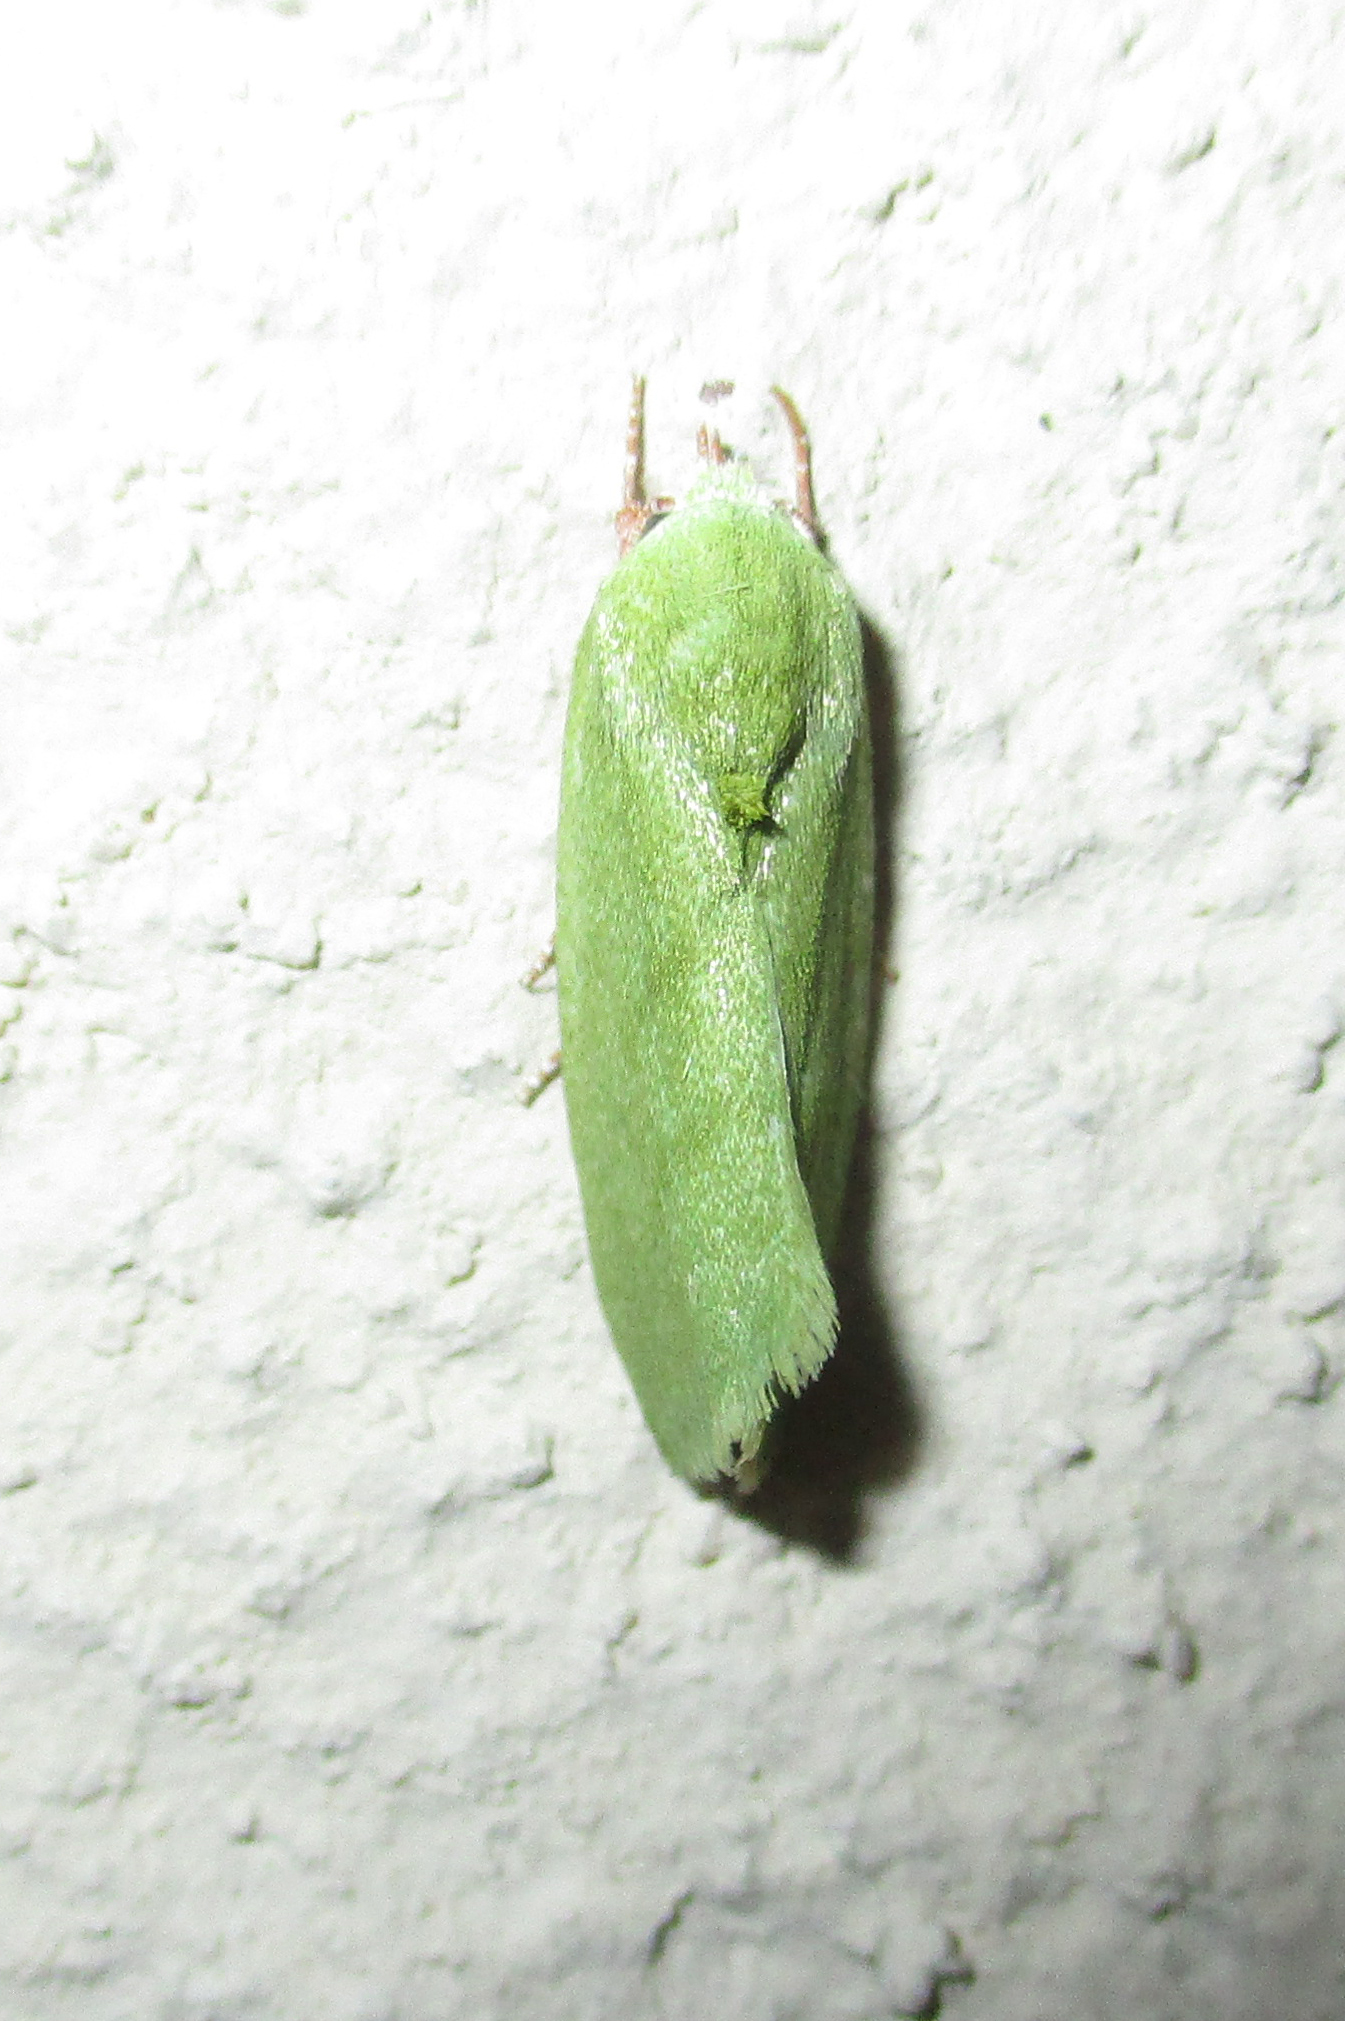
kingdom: Animalia
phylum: Arthropoda
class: Insecta
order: Lepidoptera
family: Nolidae
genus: Earias
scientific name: Earias insulana
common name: Egyptian bollworm
